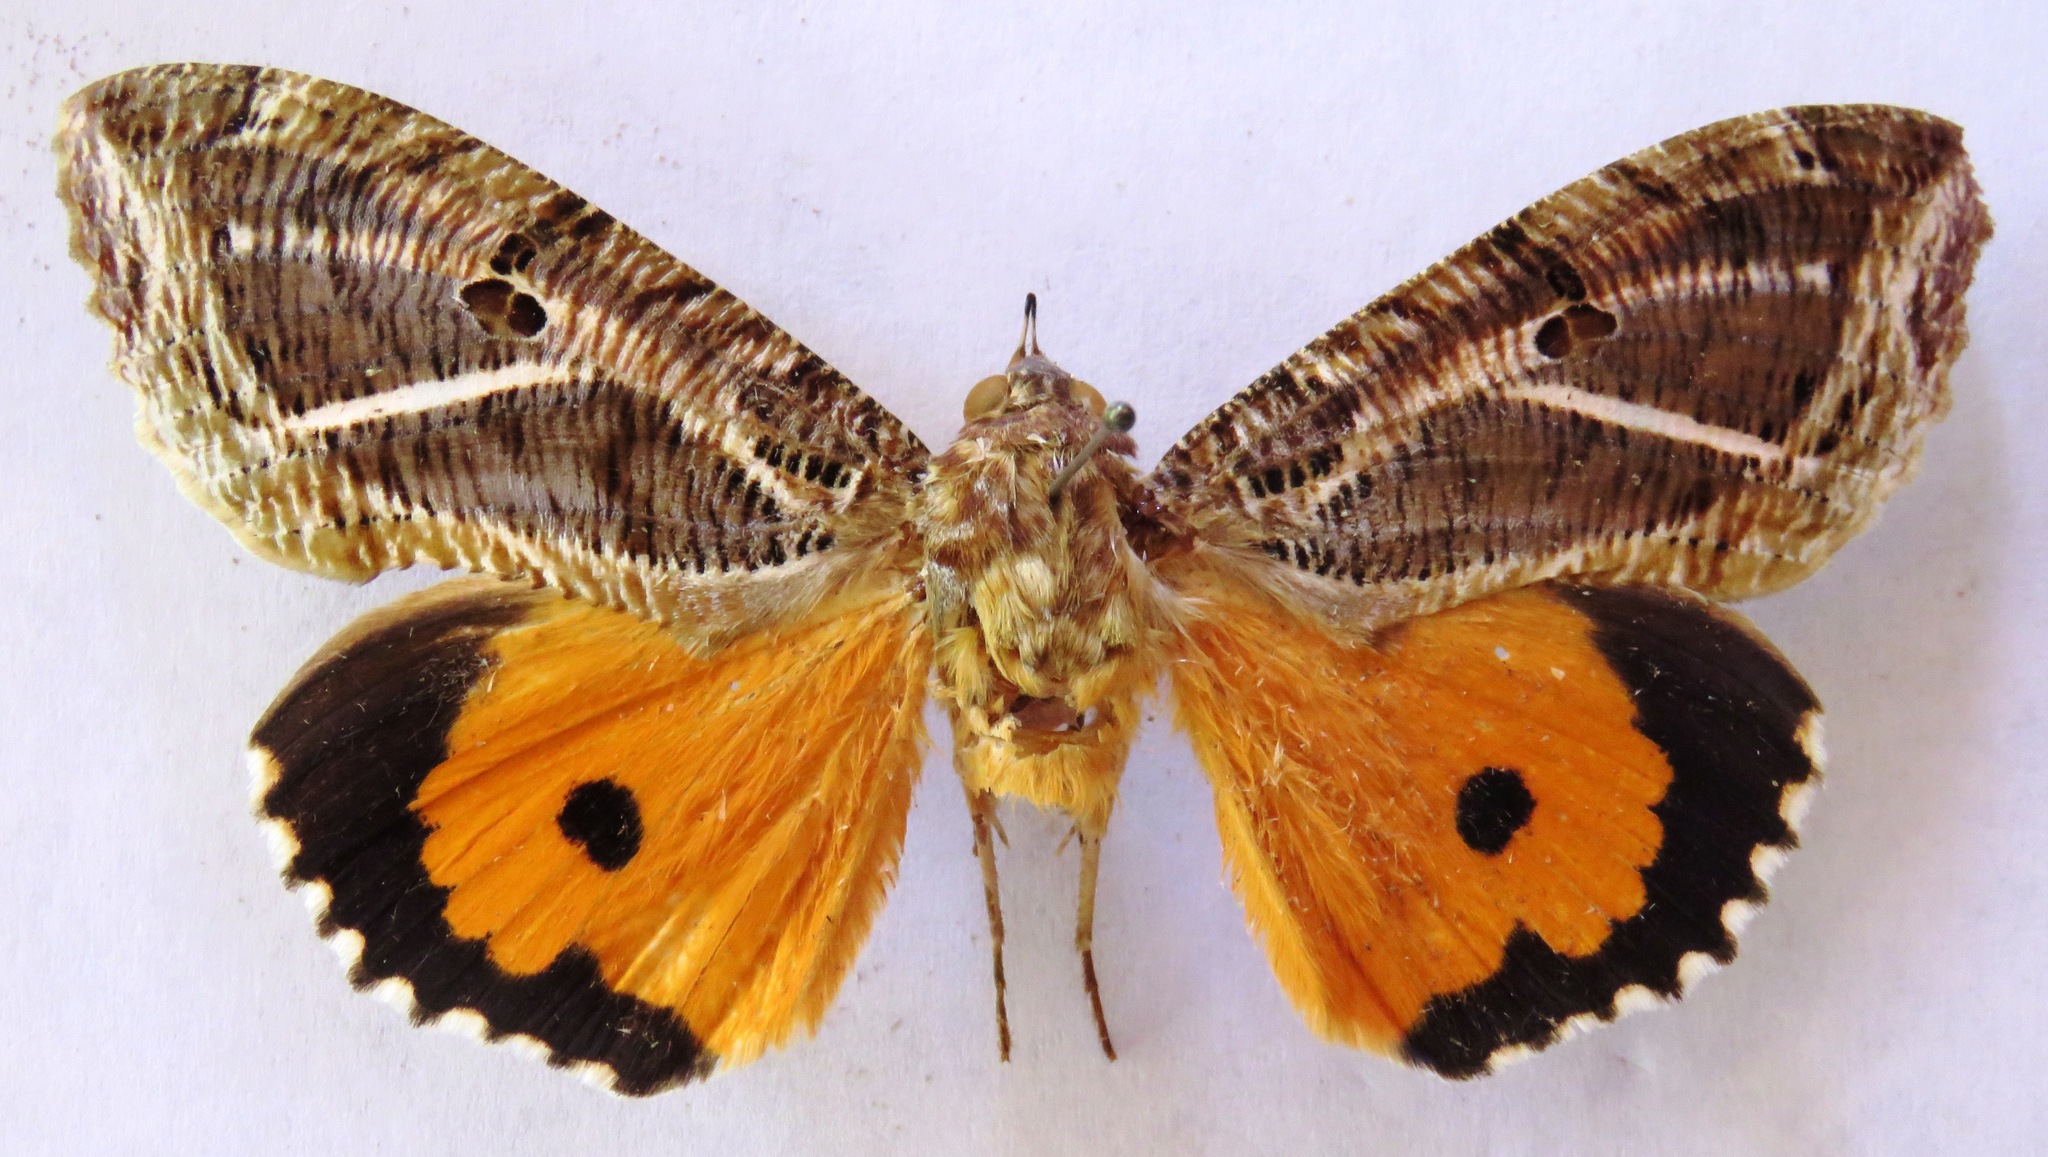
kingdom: Animalia
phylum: Arthropoda
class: Insecta
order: Lepidoptera
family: Erebidae
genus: Eudocima
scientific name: Eudocima apta
